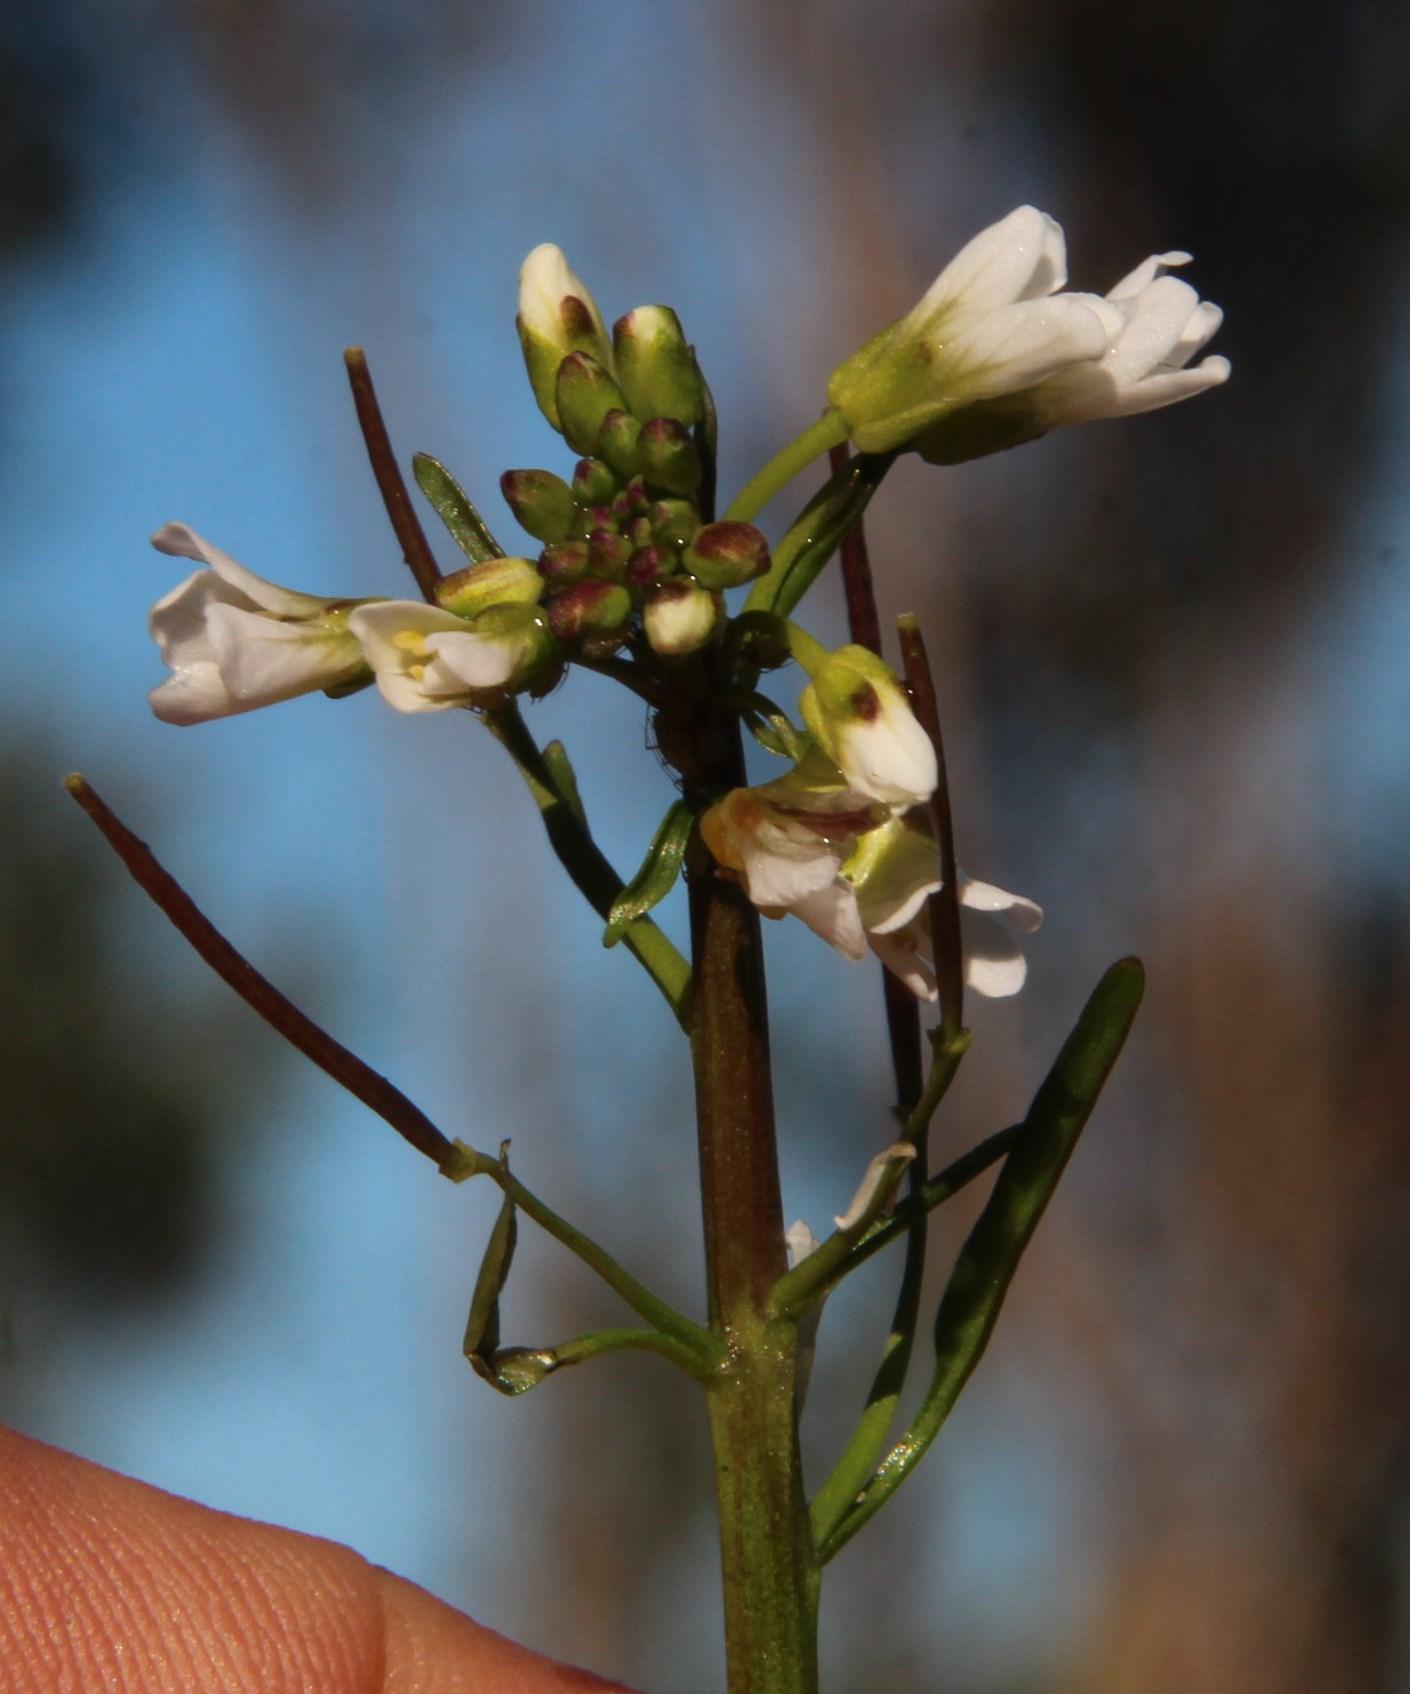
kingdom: Plantae
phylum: Tracheophyta
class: Magnoliopsida
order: Brassicales
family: Brassicaceae
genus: Cardamine
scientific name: Cardamine glacialis
